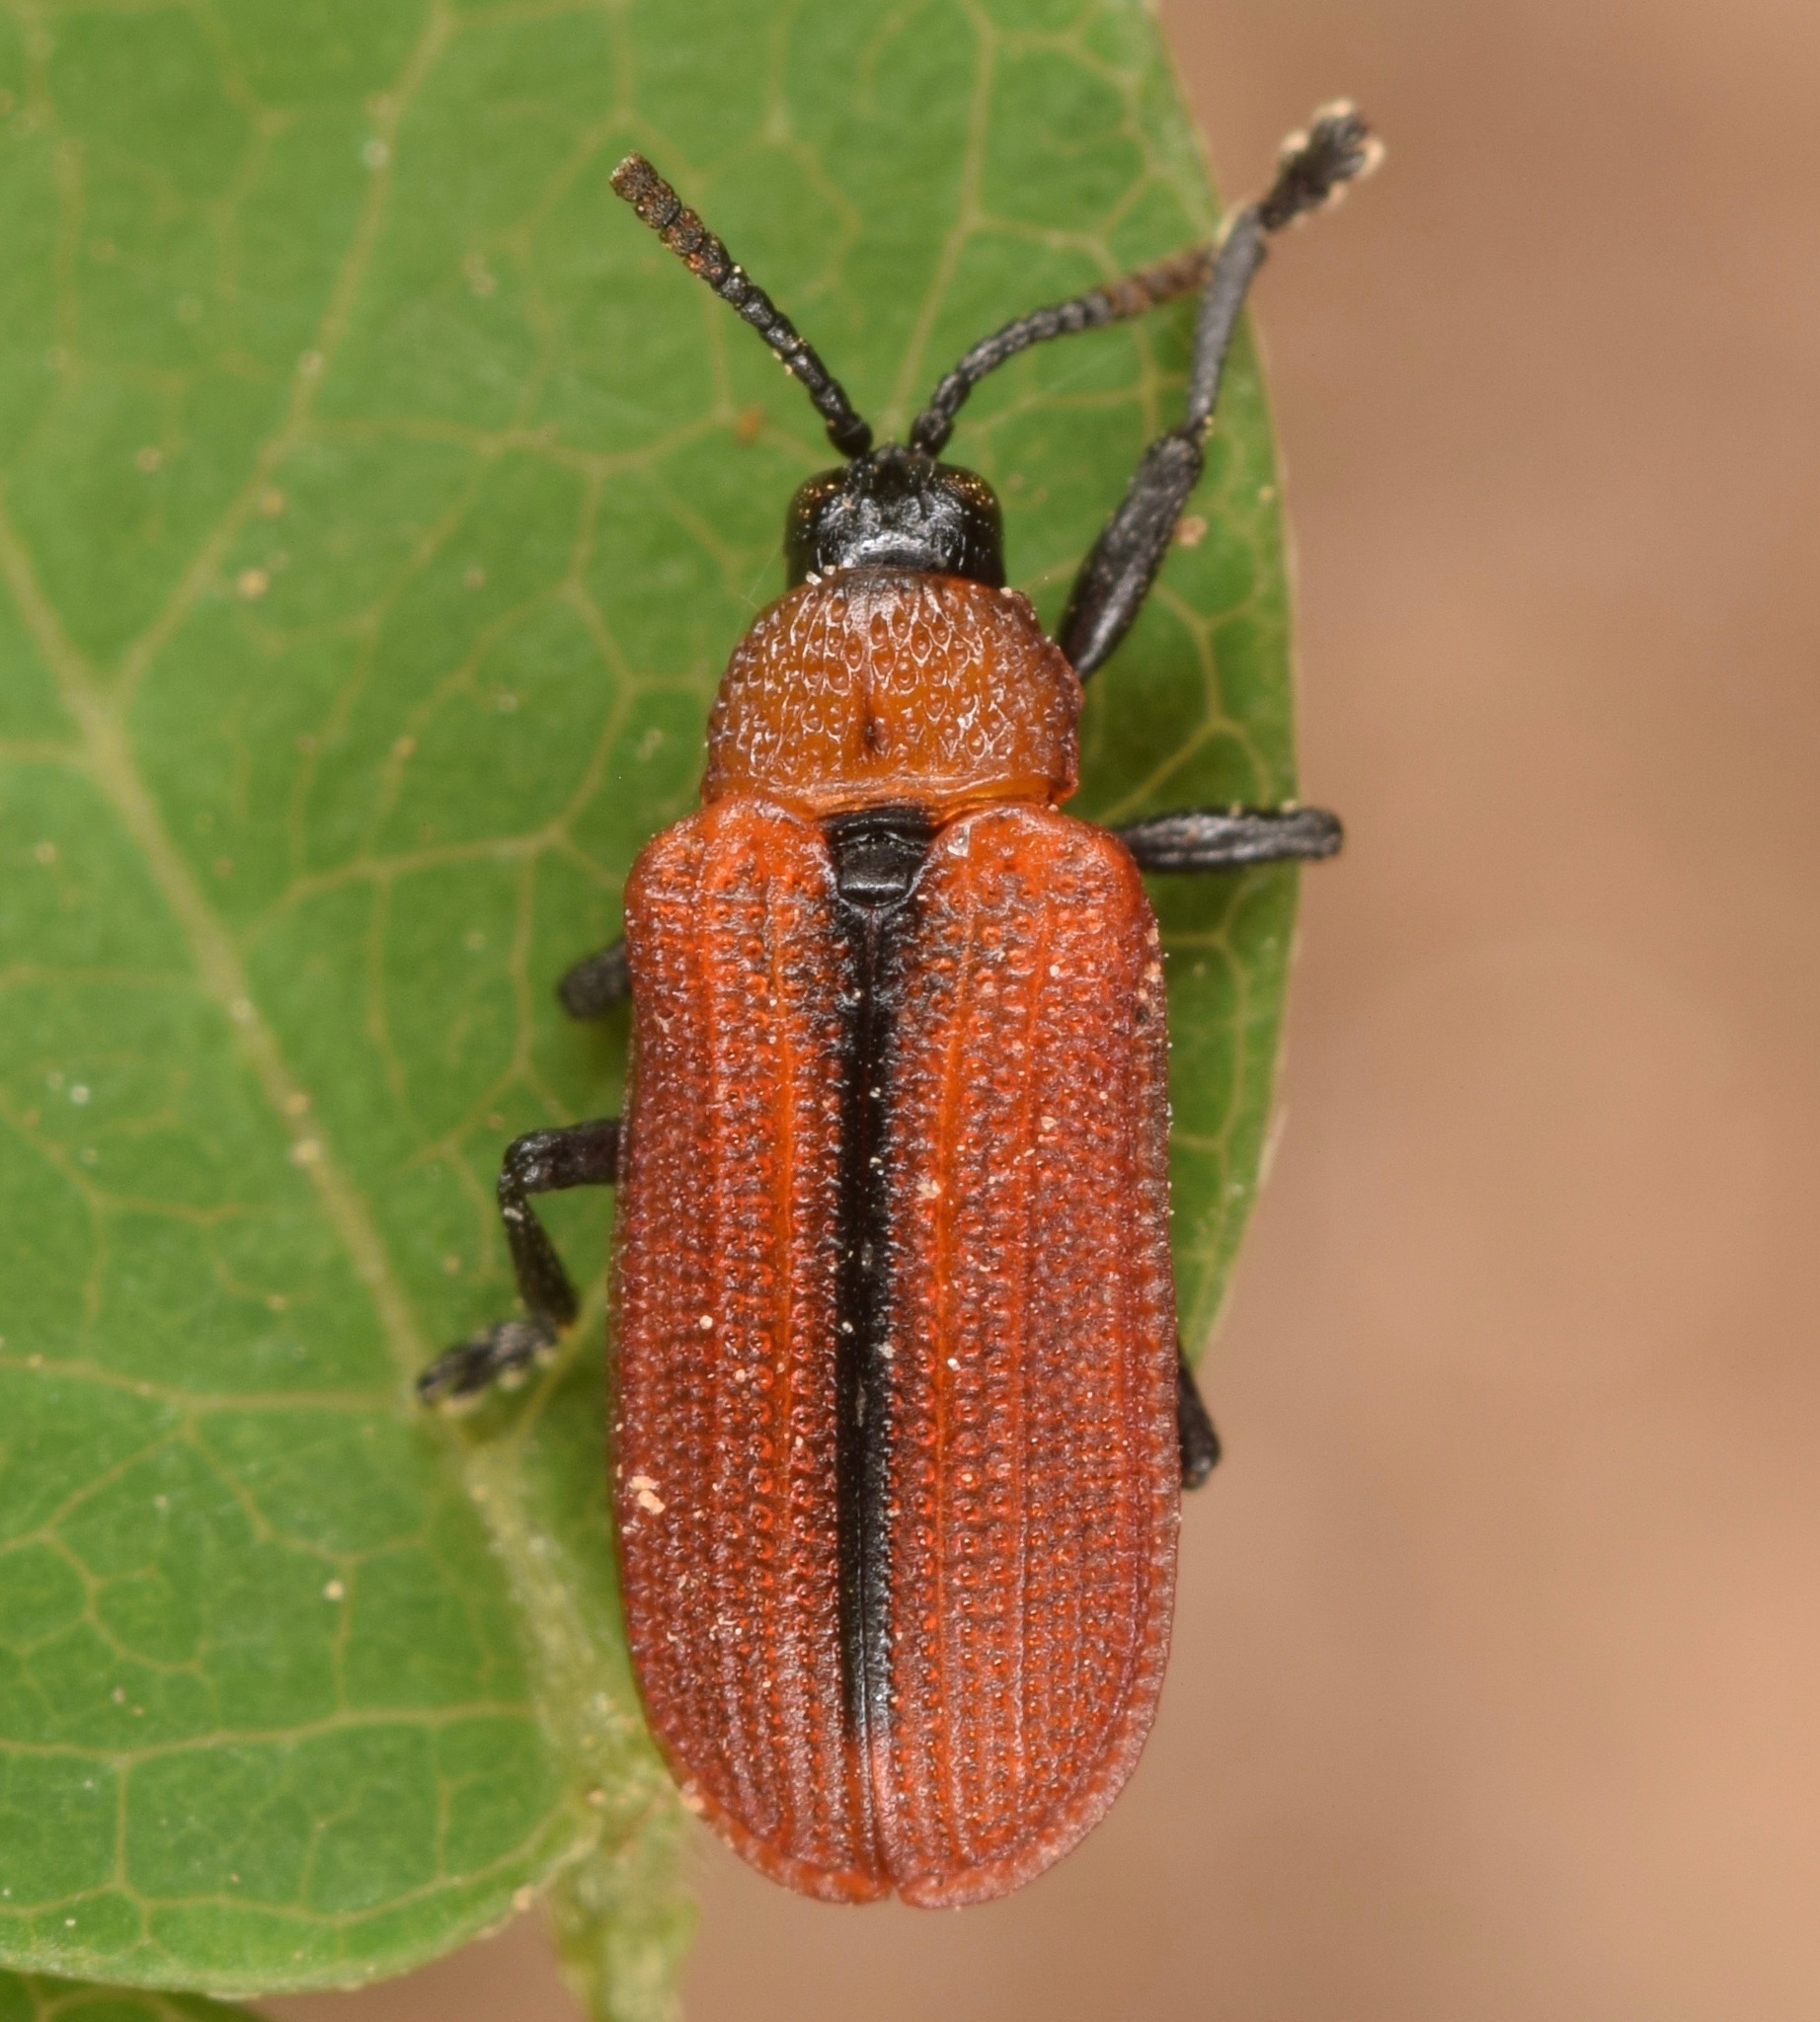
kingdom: Animalia
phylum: Arthropoda
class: Insecta
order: Coleoptera
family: Chrysomelidae
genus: Odontota
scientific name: Odontota horni
